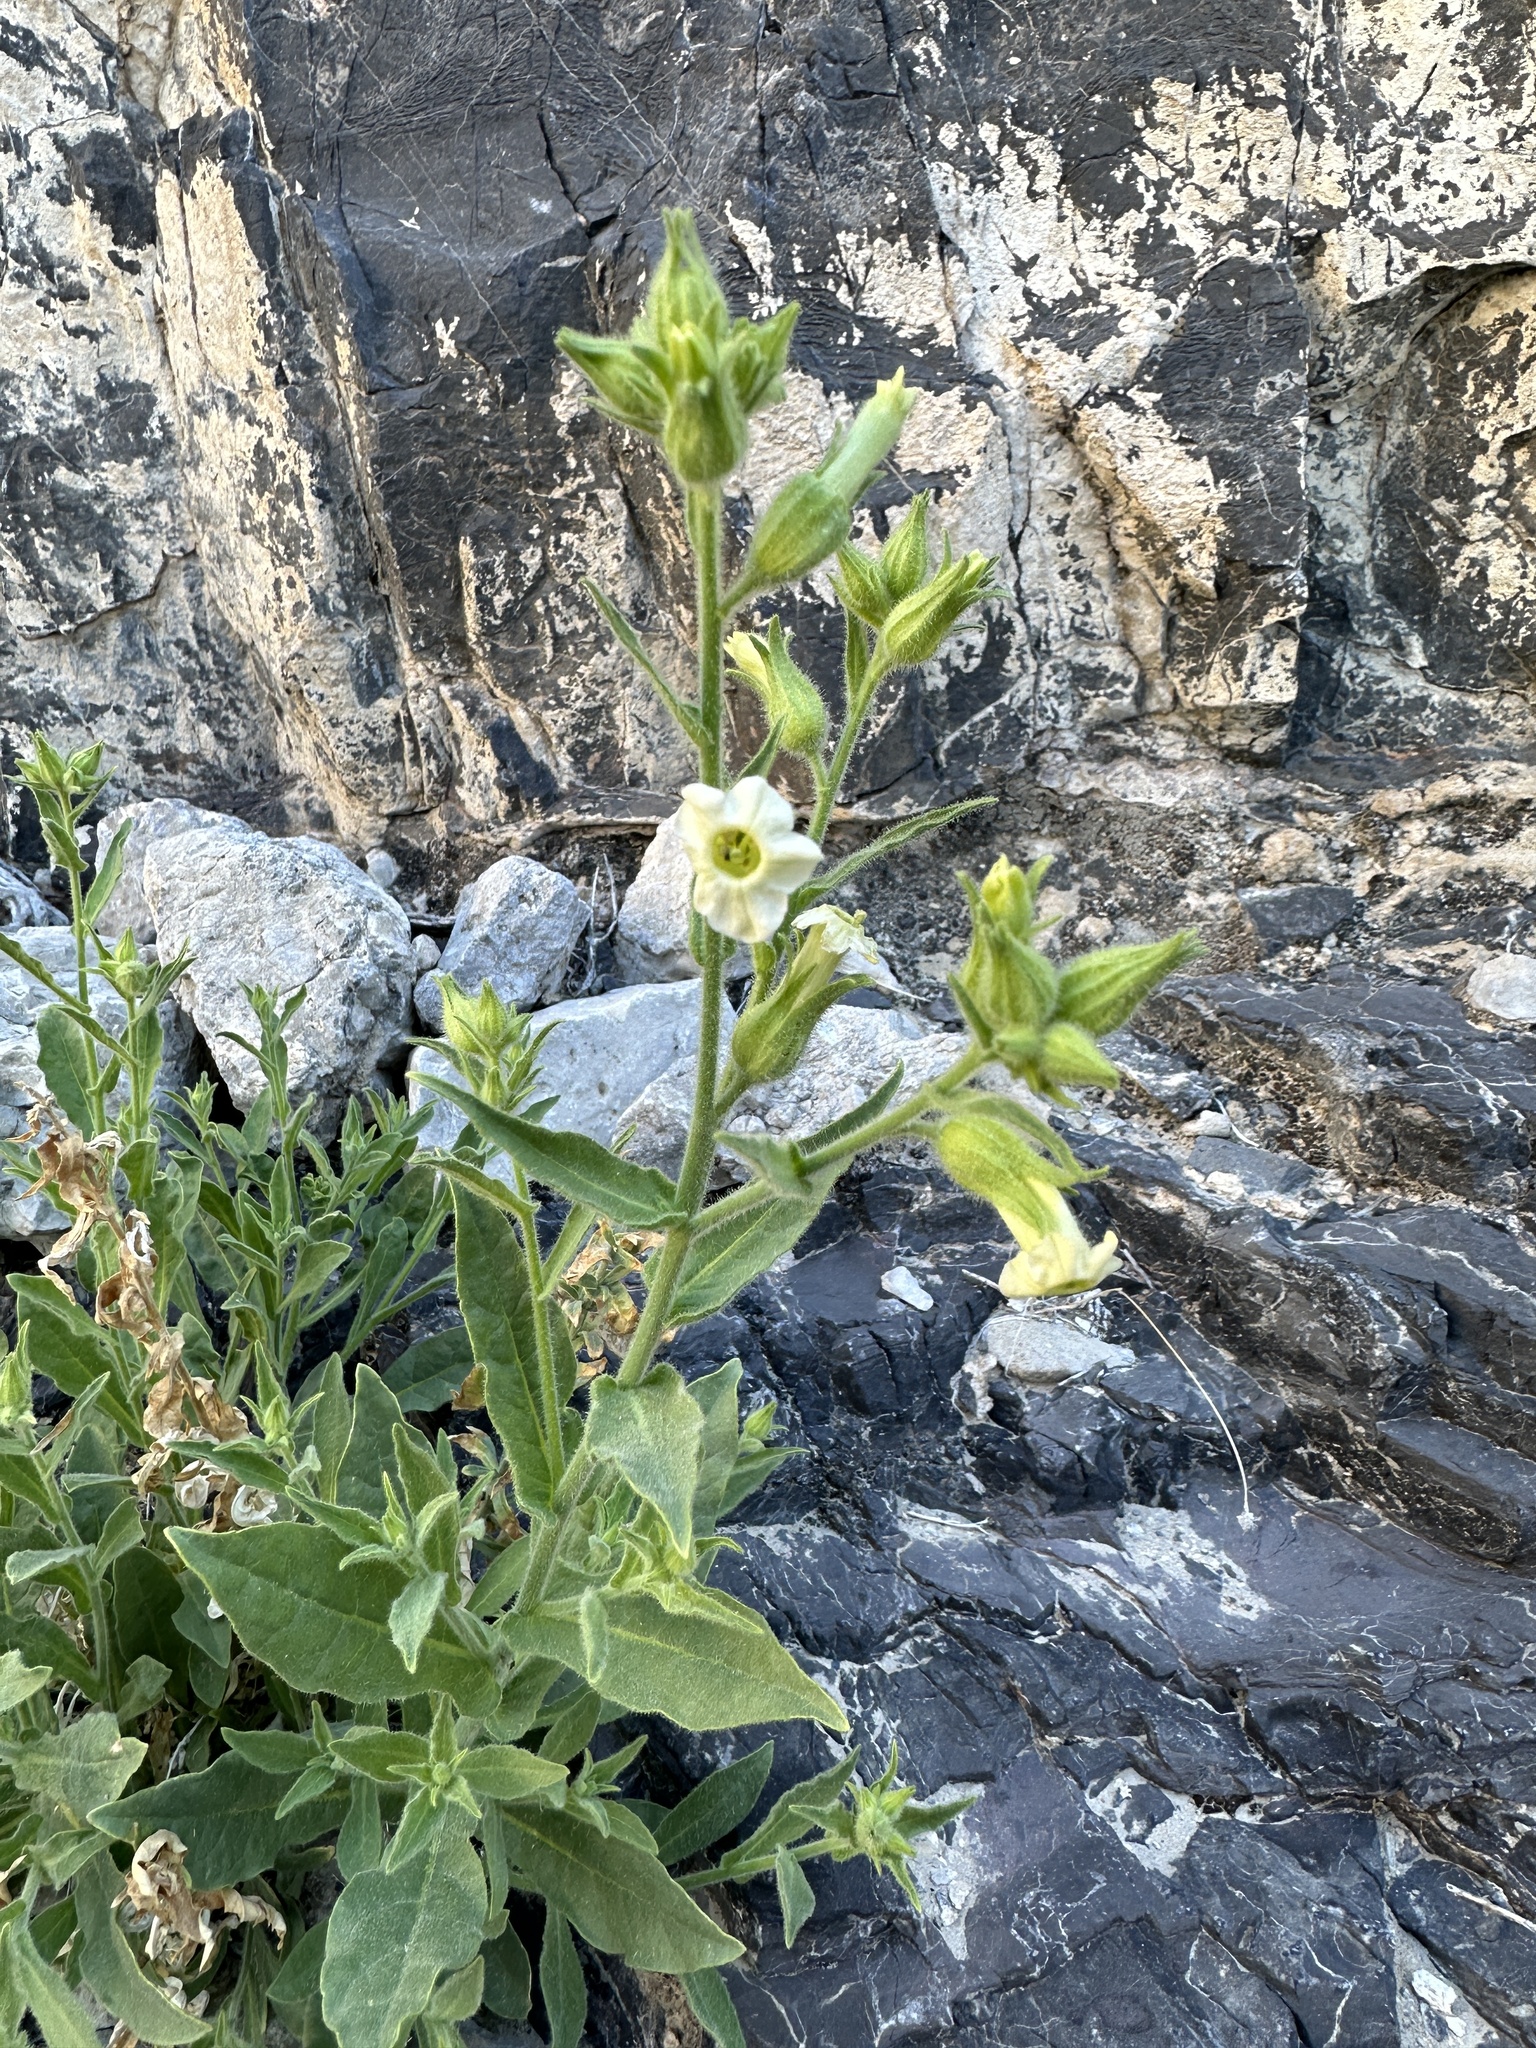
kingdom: Plantae
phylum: Tracheophyta
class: Magnoliopsida
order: Solanales
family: Solanaceae
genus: Nicotiana
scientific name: Nicotiana obtusifolia
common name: Desert tobacco
